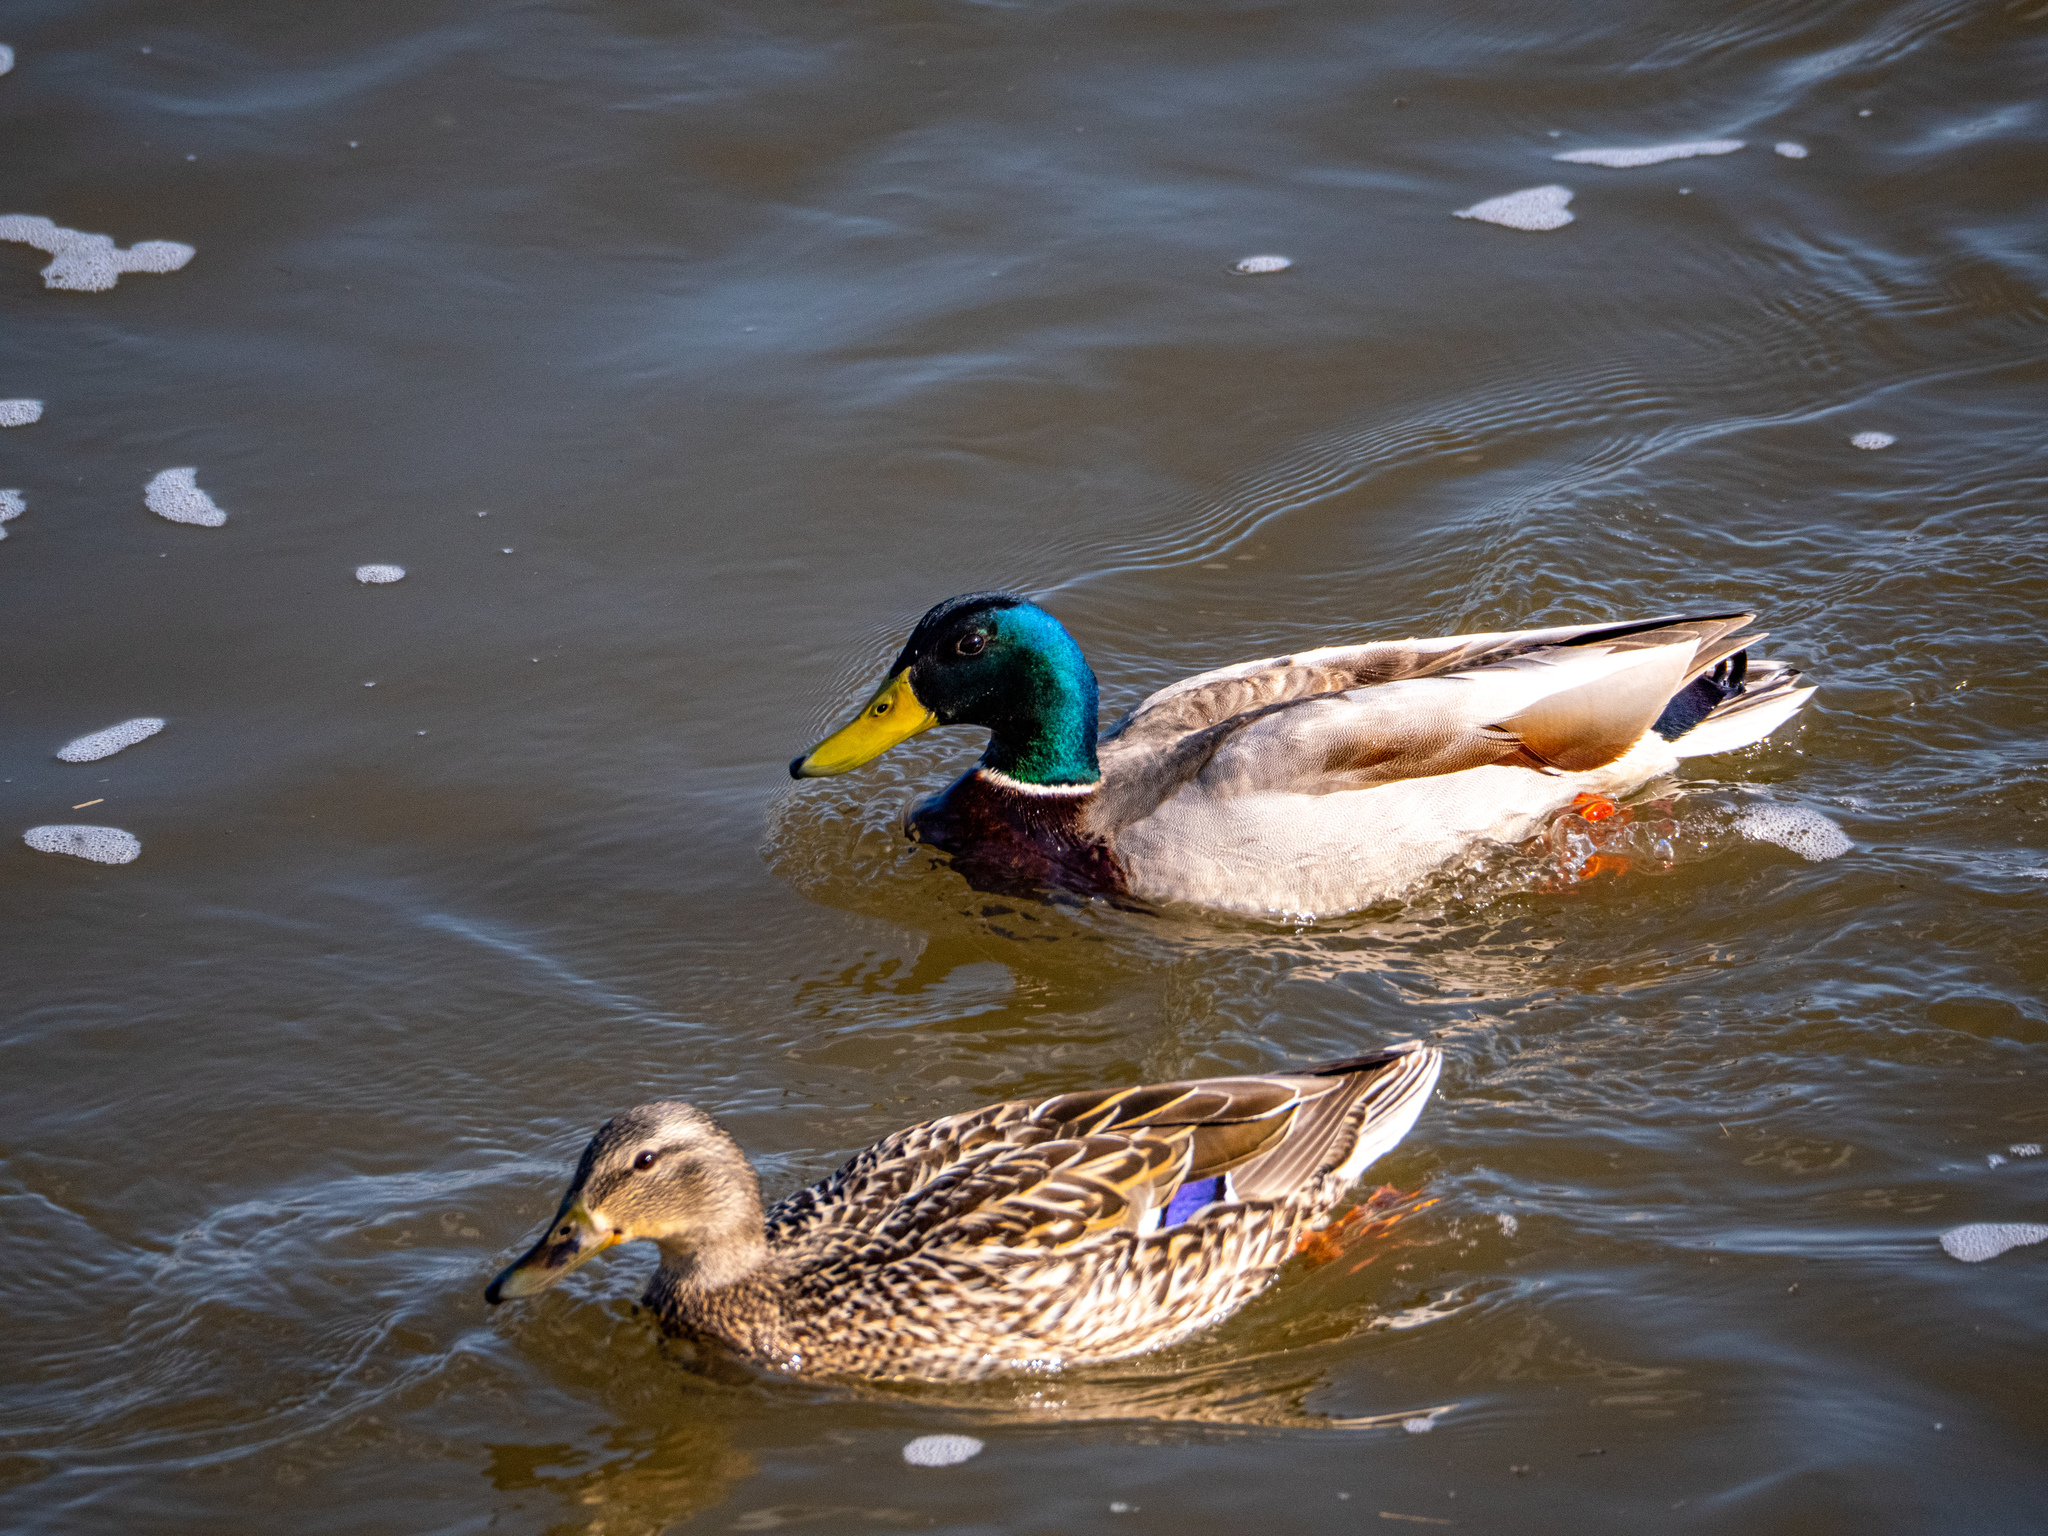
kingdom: Animalia
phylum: Chordata
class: Aves
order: Anseriformes
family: Anatidae
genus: Anas
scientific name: Anas platyrhynchos
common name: Mallard
